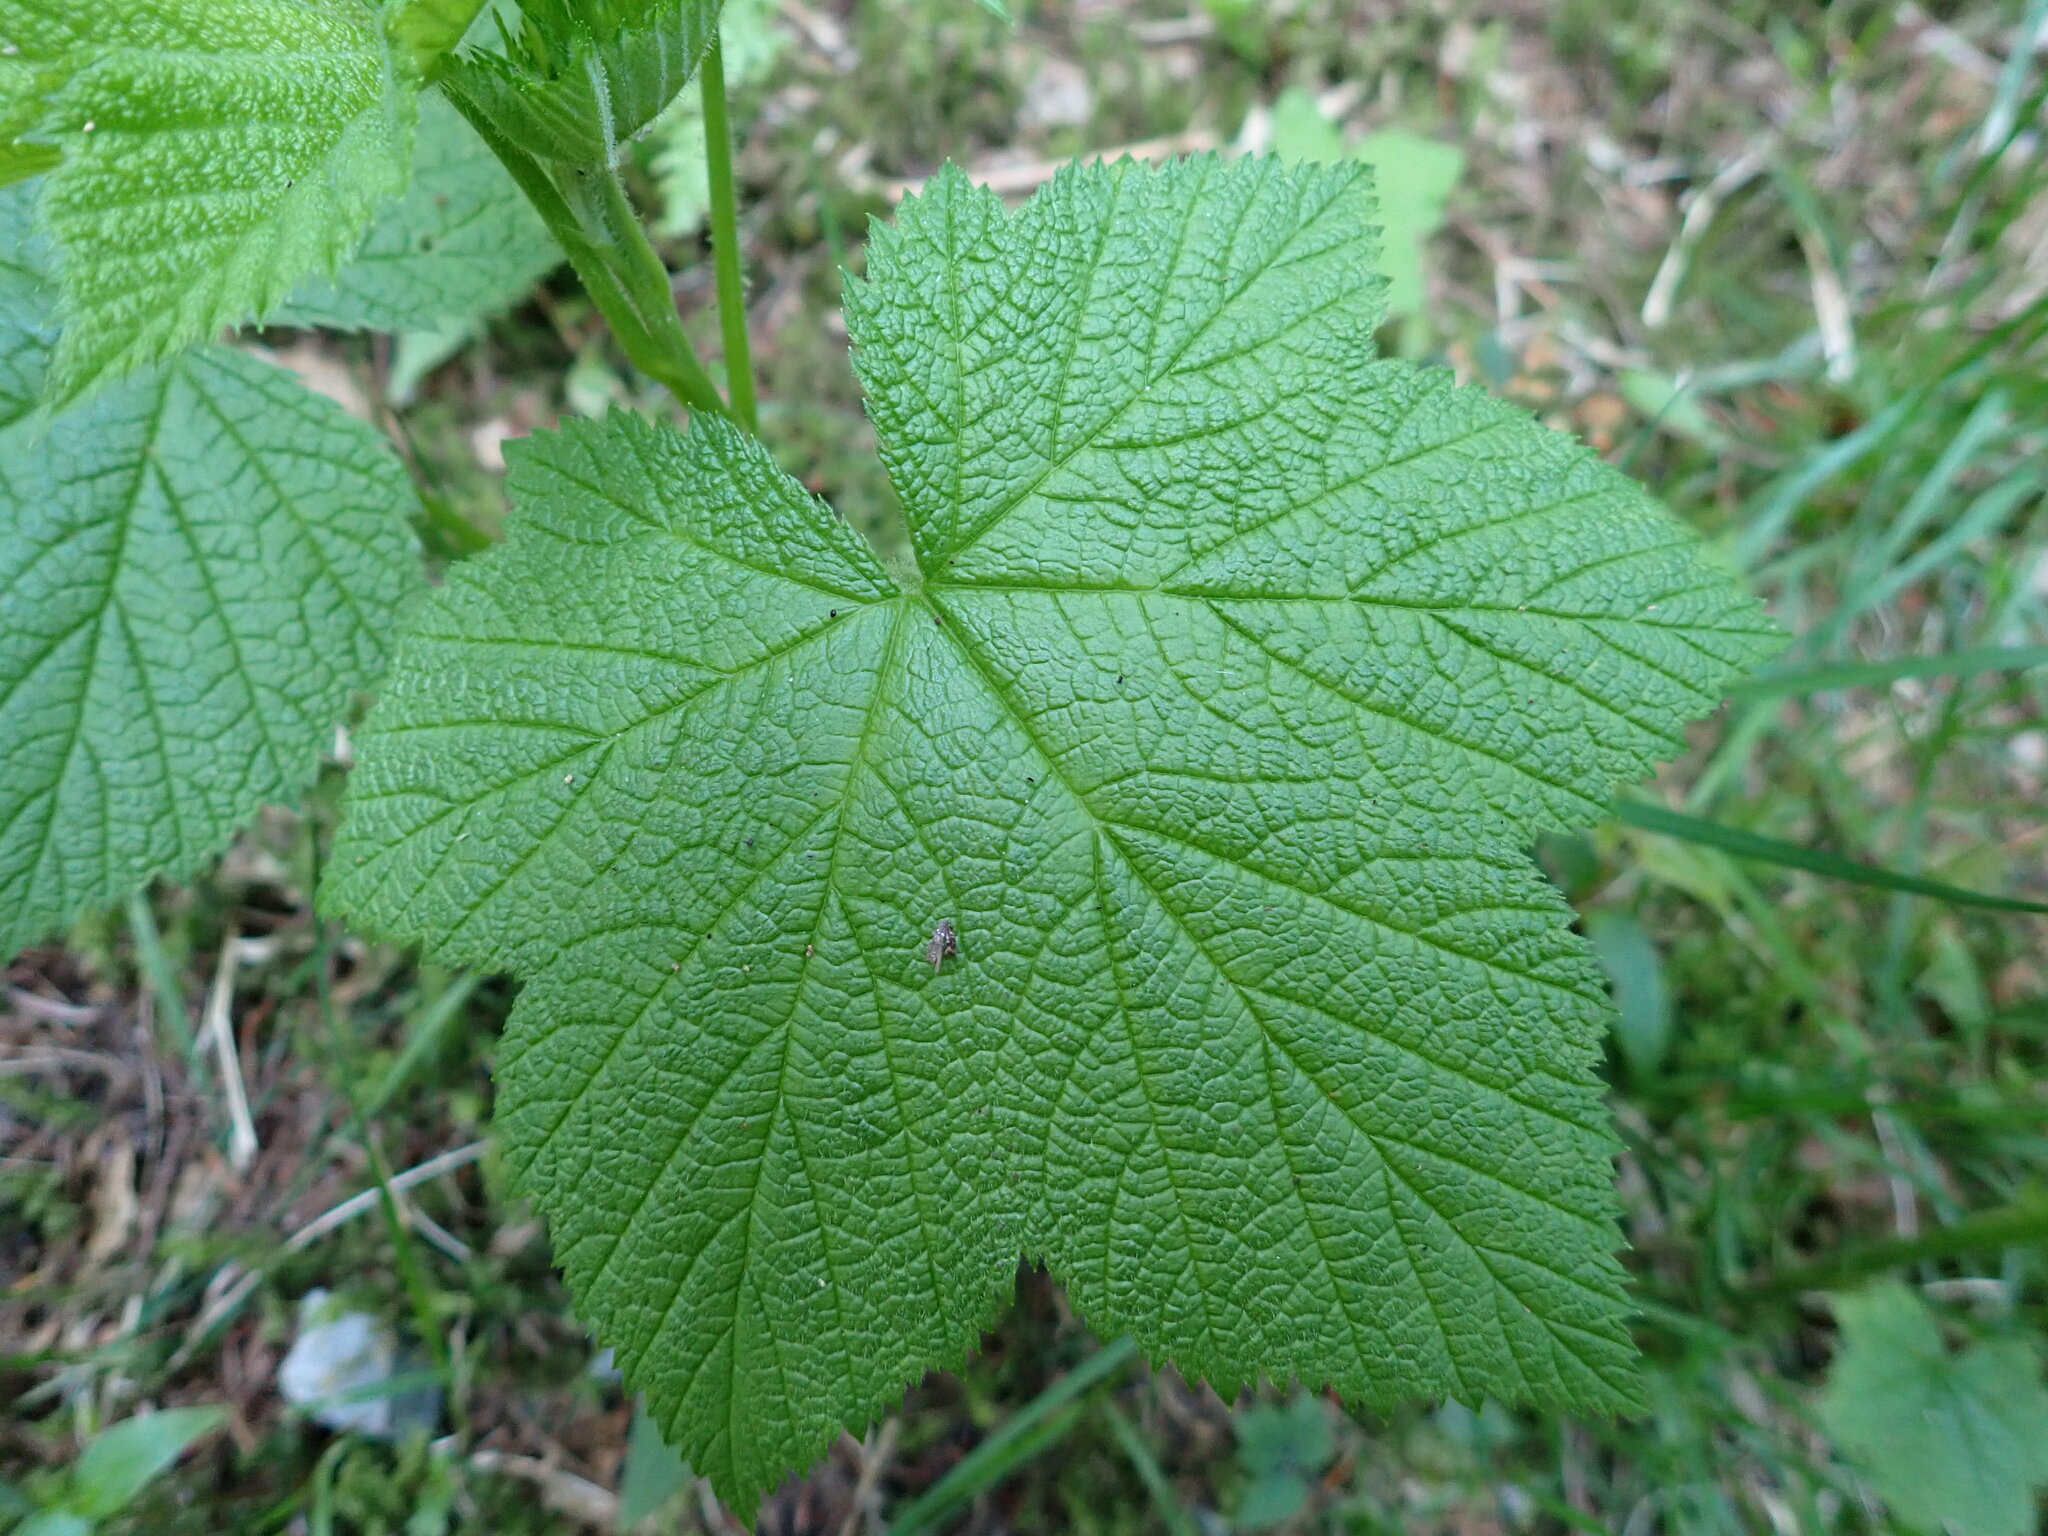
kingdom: Plantae
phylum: Tracheophyta
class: Magnoliopsida
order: Rosales
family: Rosaceae
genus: Rubus
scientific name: Rubus parviflorus
